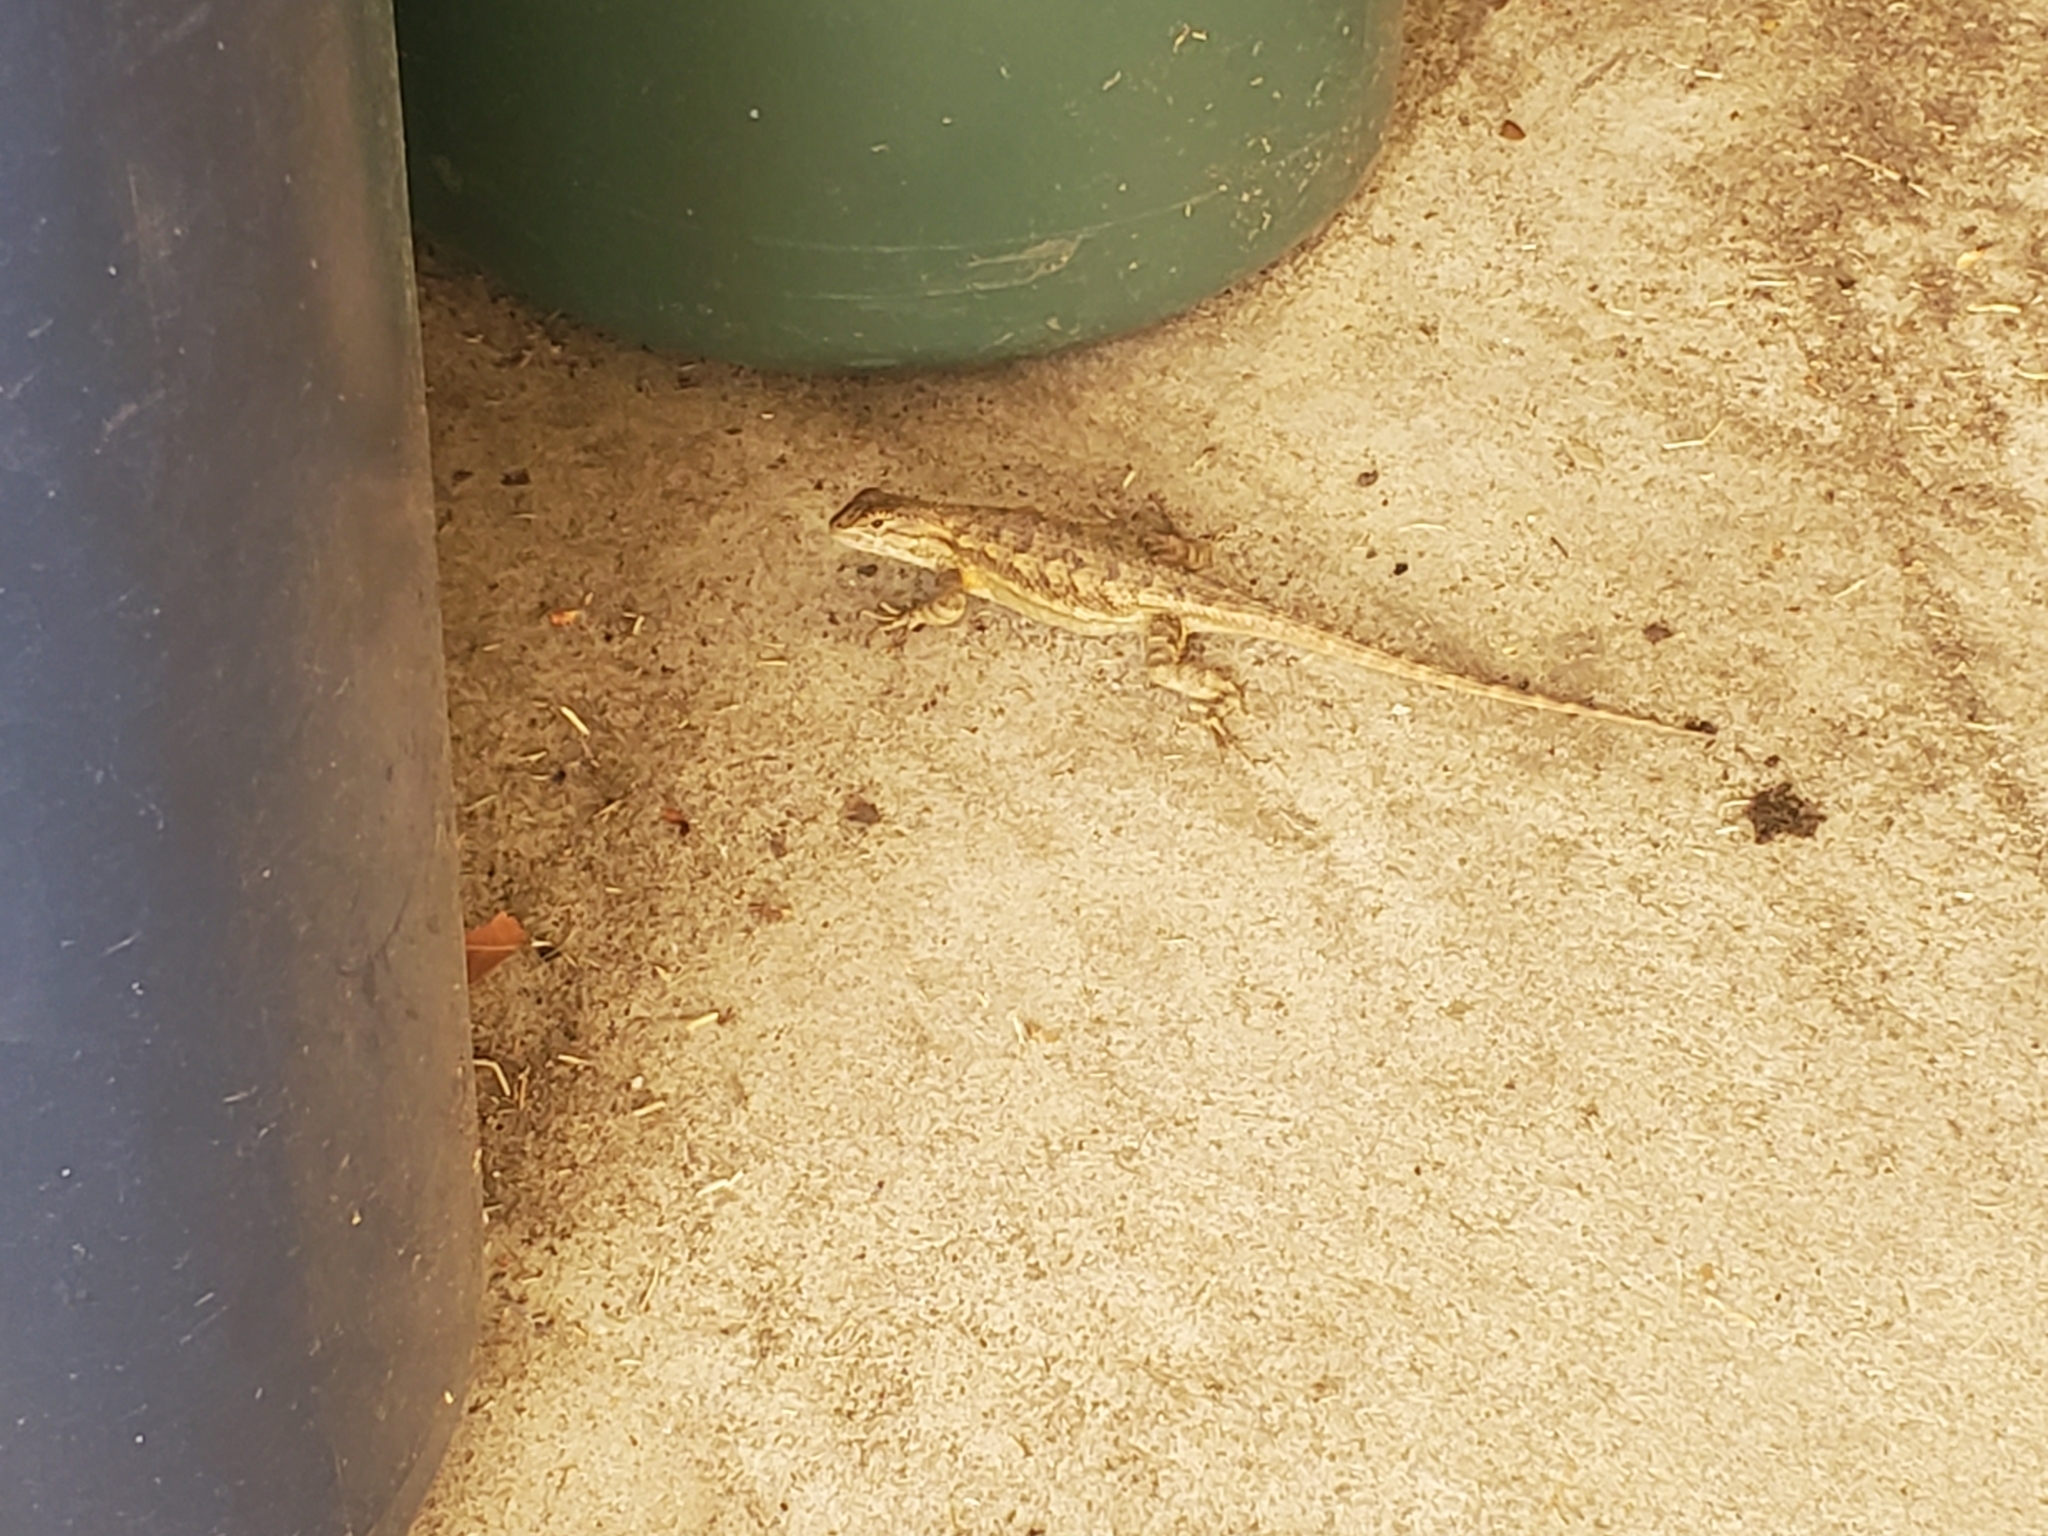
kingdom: Animalia
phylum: Chordata
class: Squamata
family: Phrynosomatidae
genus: Sceloporus
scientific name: Sceloporus occidentalis
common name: Western fence lizard
